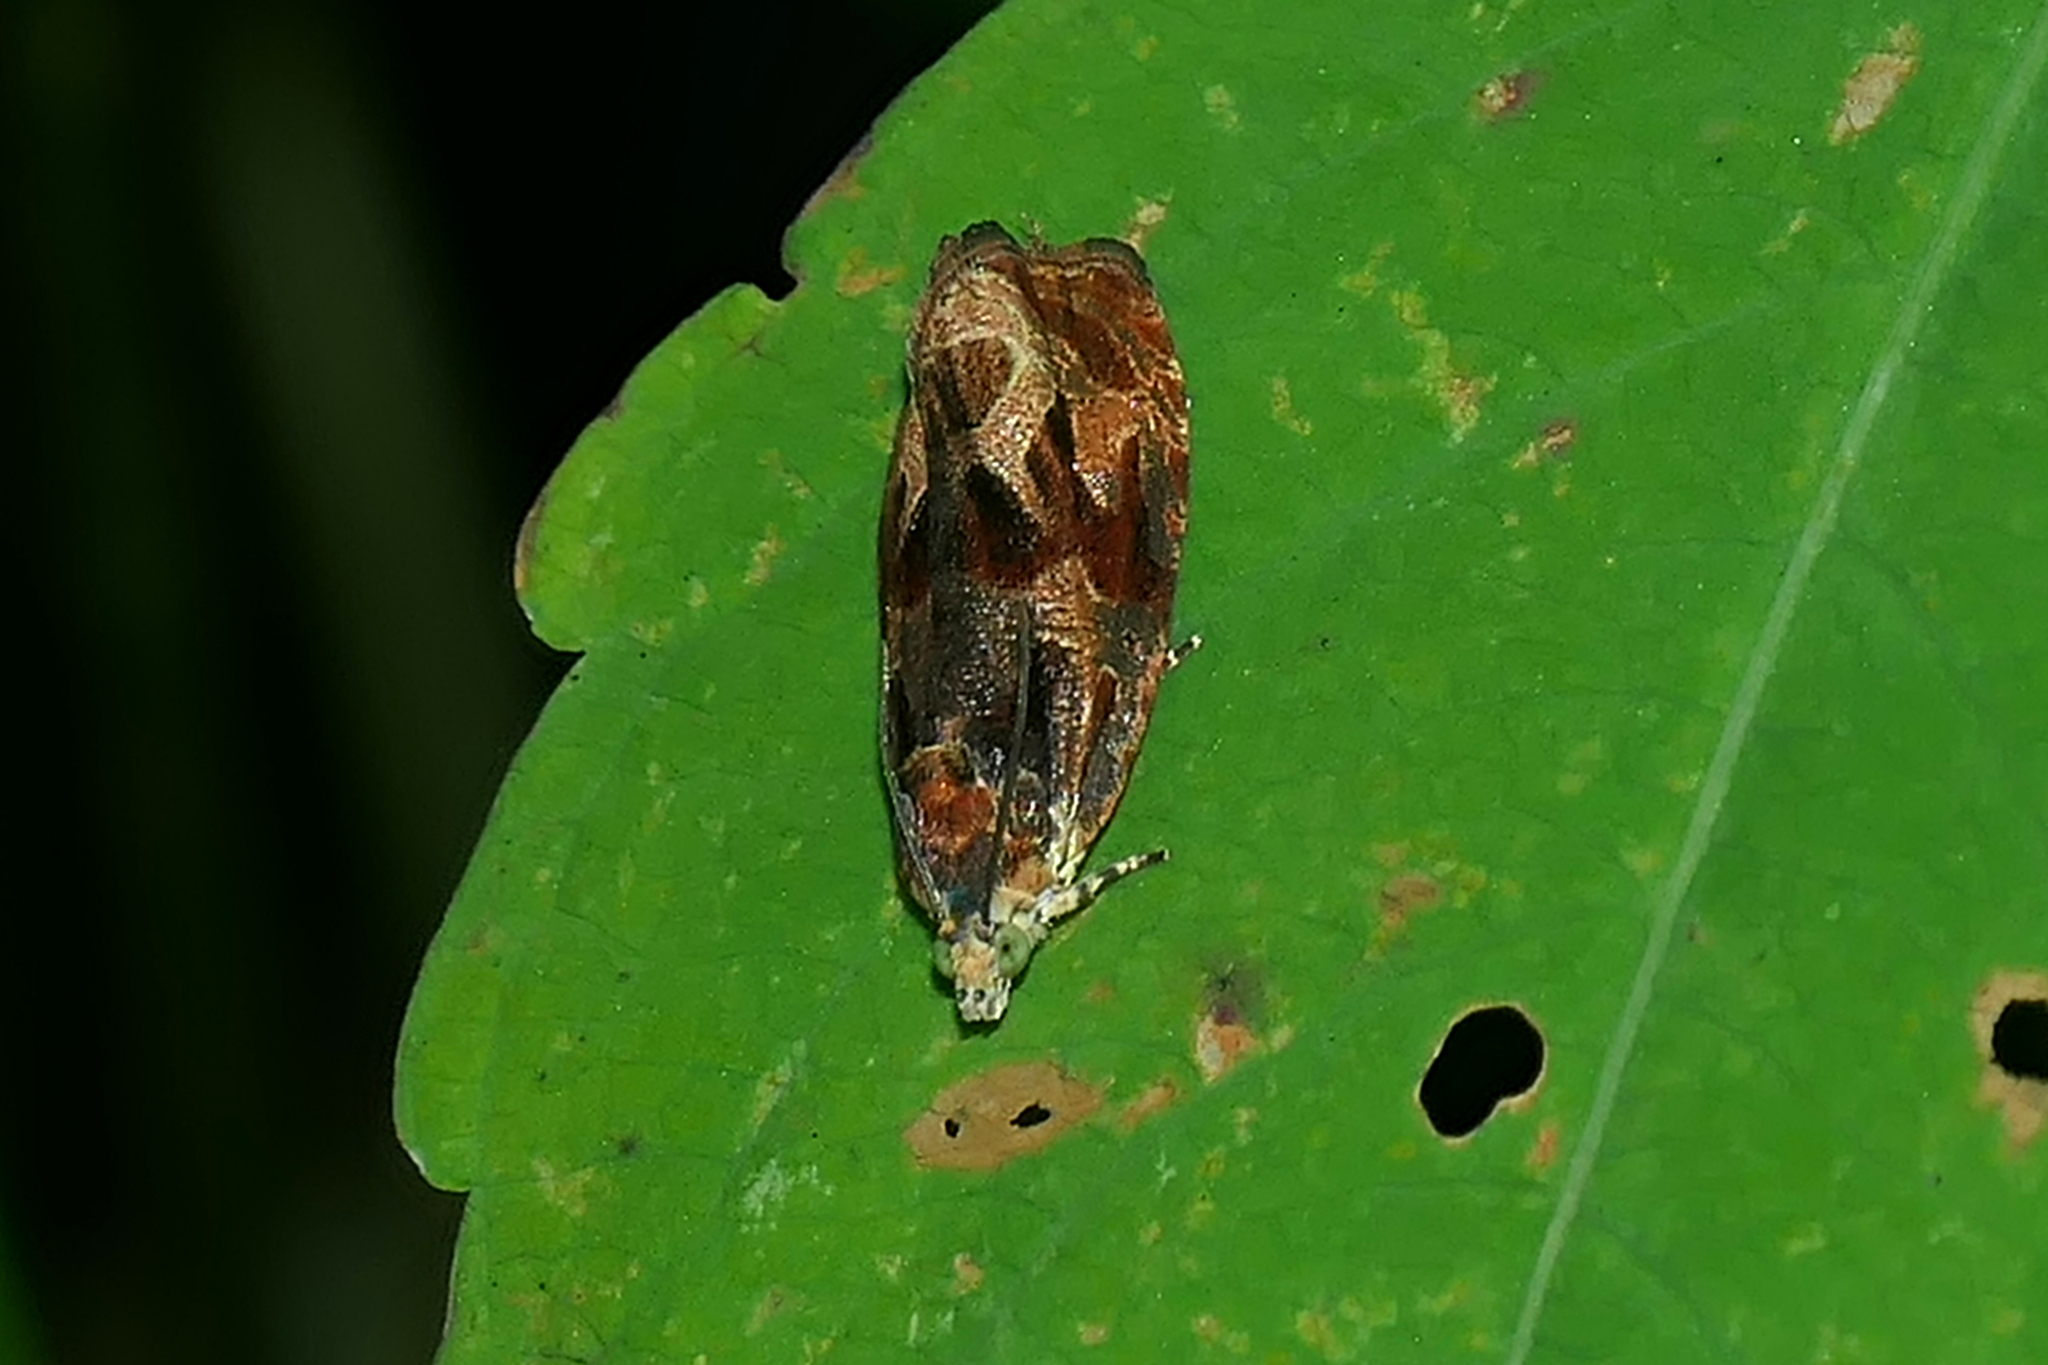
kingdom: Animalia
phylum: Arthropoda
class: Insecta
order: Lepidoptera
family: Tortricidae
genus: Olethreutes
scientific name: Olethreutes nigranum
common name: Variable nigranum moth
